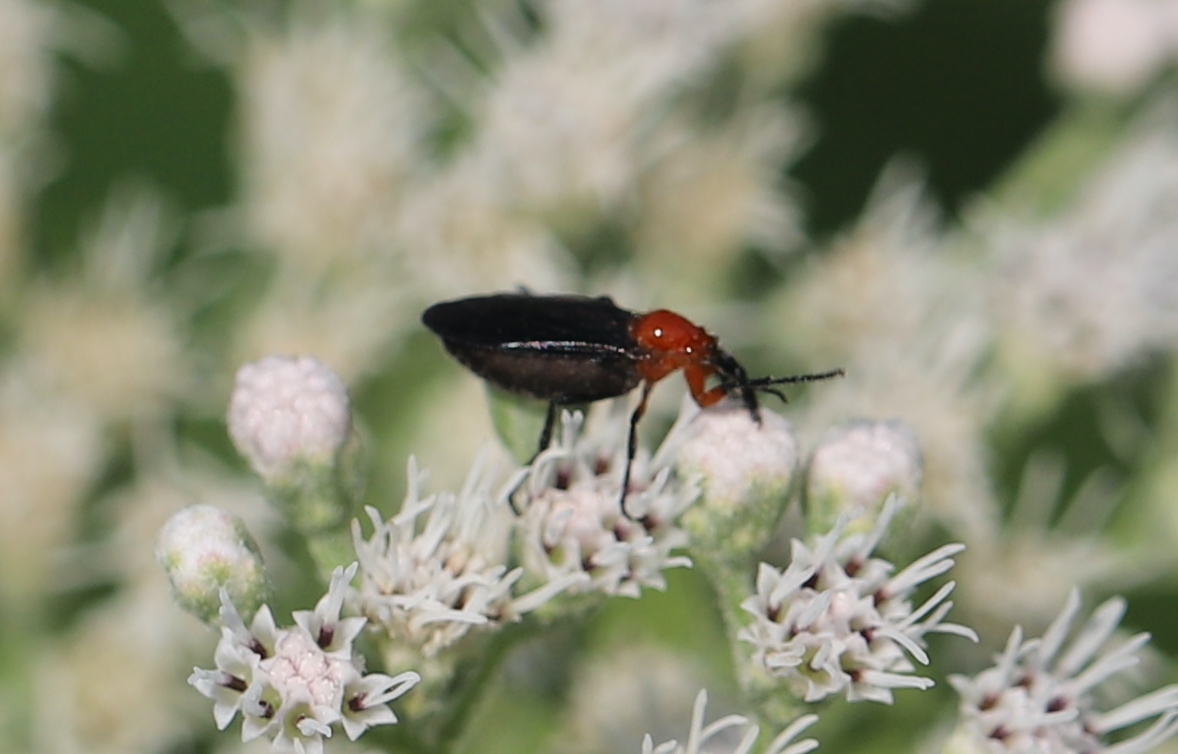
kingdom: Animalia
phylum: Arthropoda
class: Insecta
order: Diptera
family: Bibionidae
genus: Dilophus
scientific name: Dilophus spinipes
